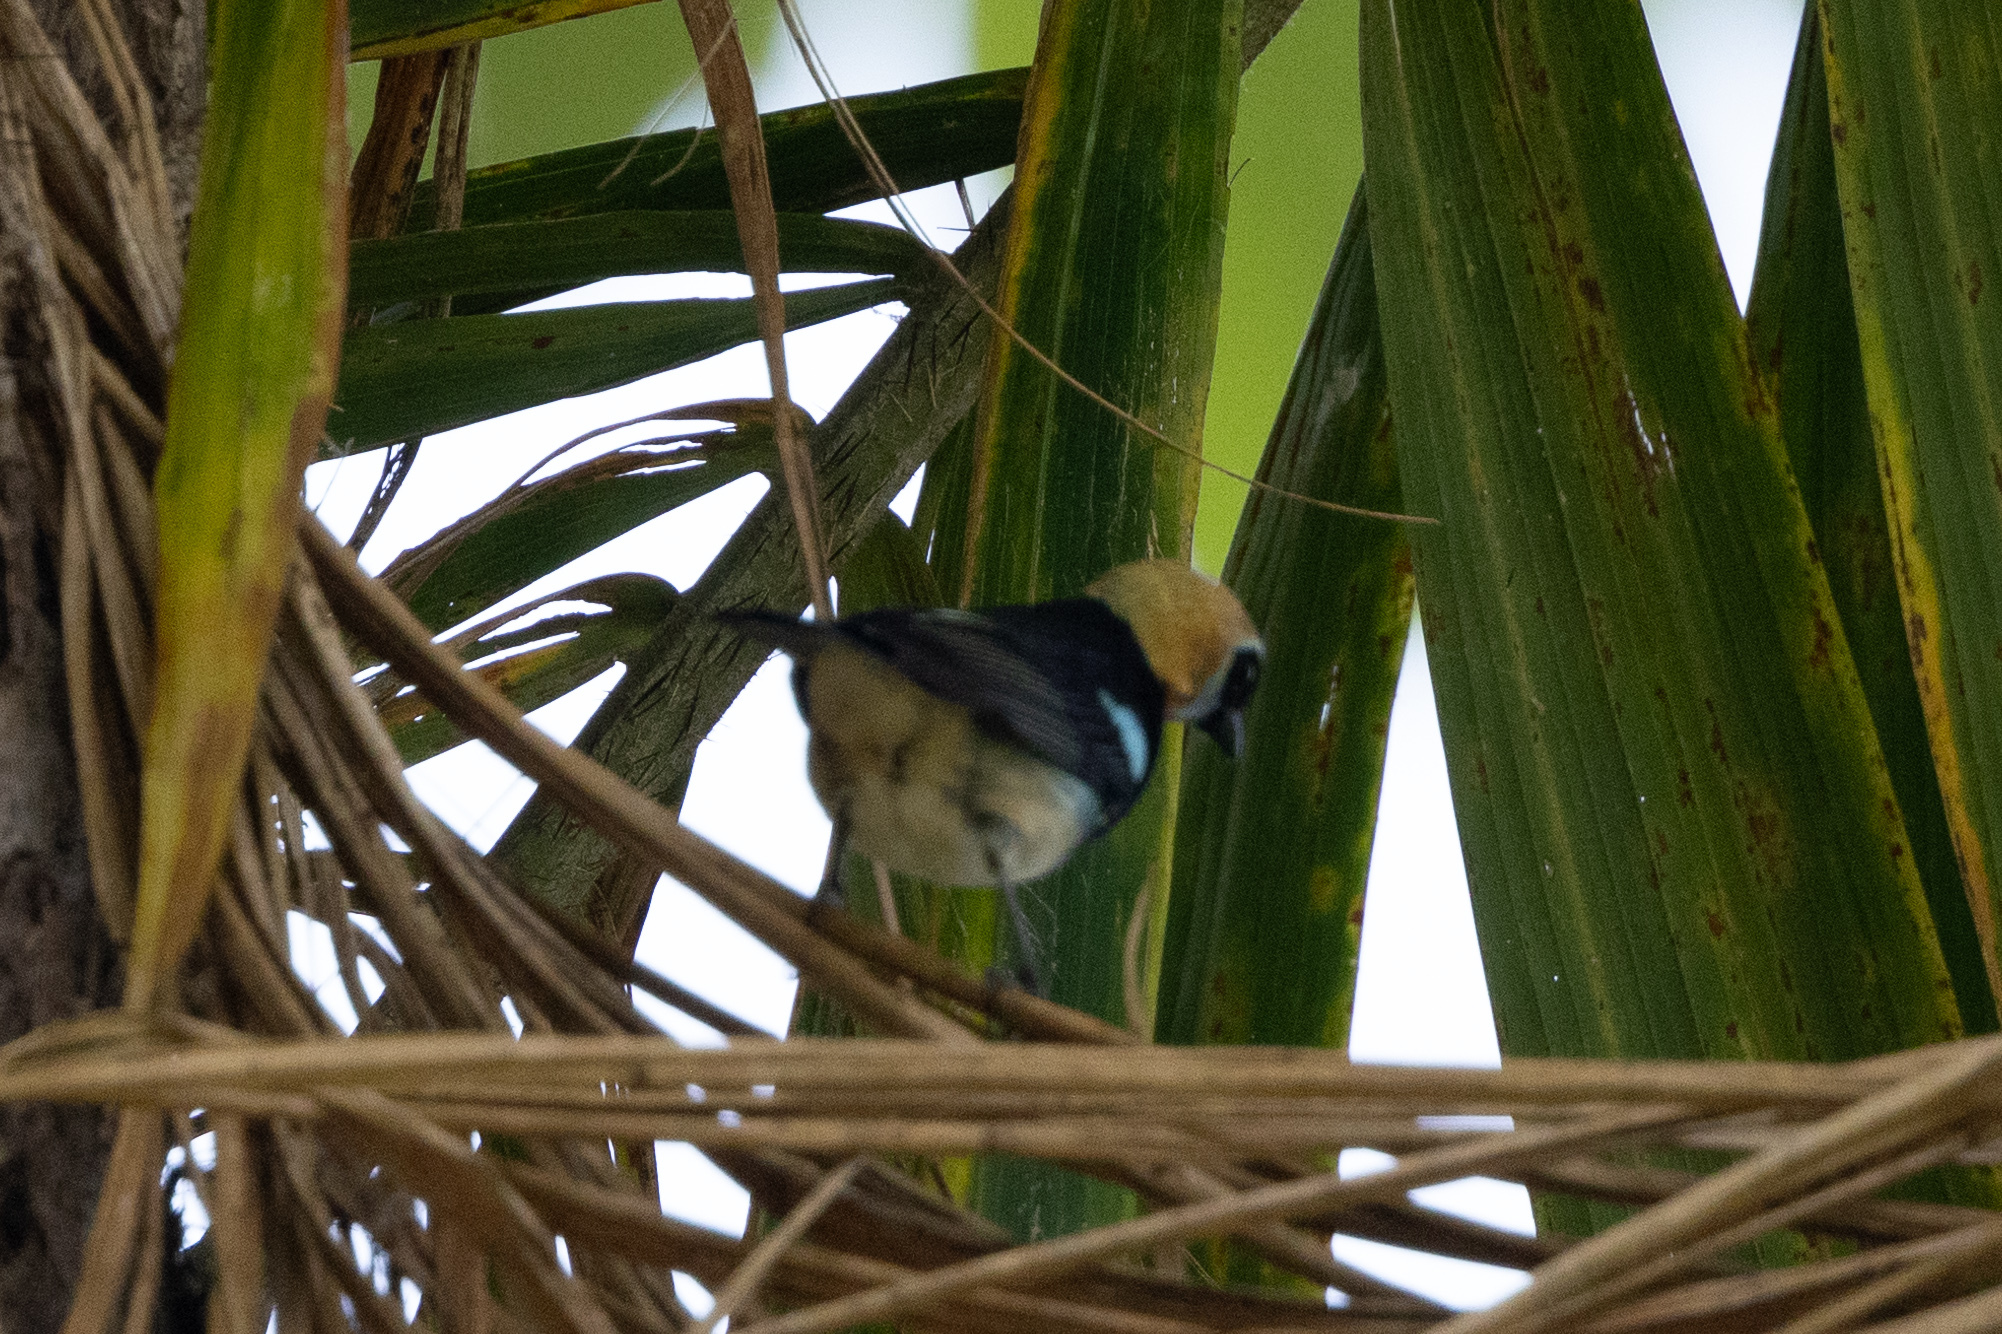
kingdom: Animalia
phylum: Chordata
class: Aves
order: Passeriformes
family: Thraupidae
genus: Stilpnia
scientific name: Stilpnia larvata
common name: Golden-hooded tanager
